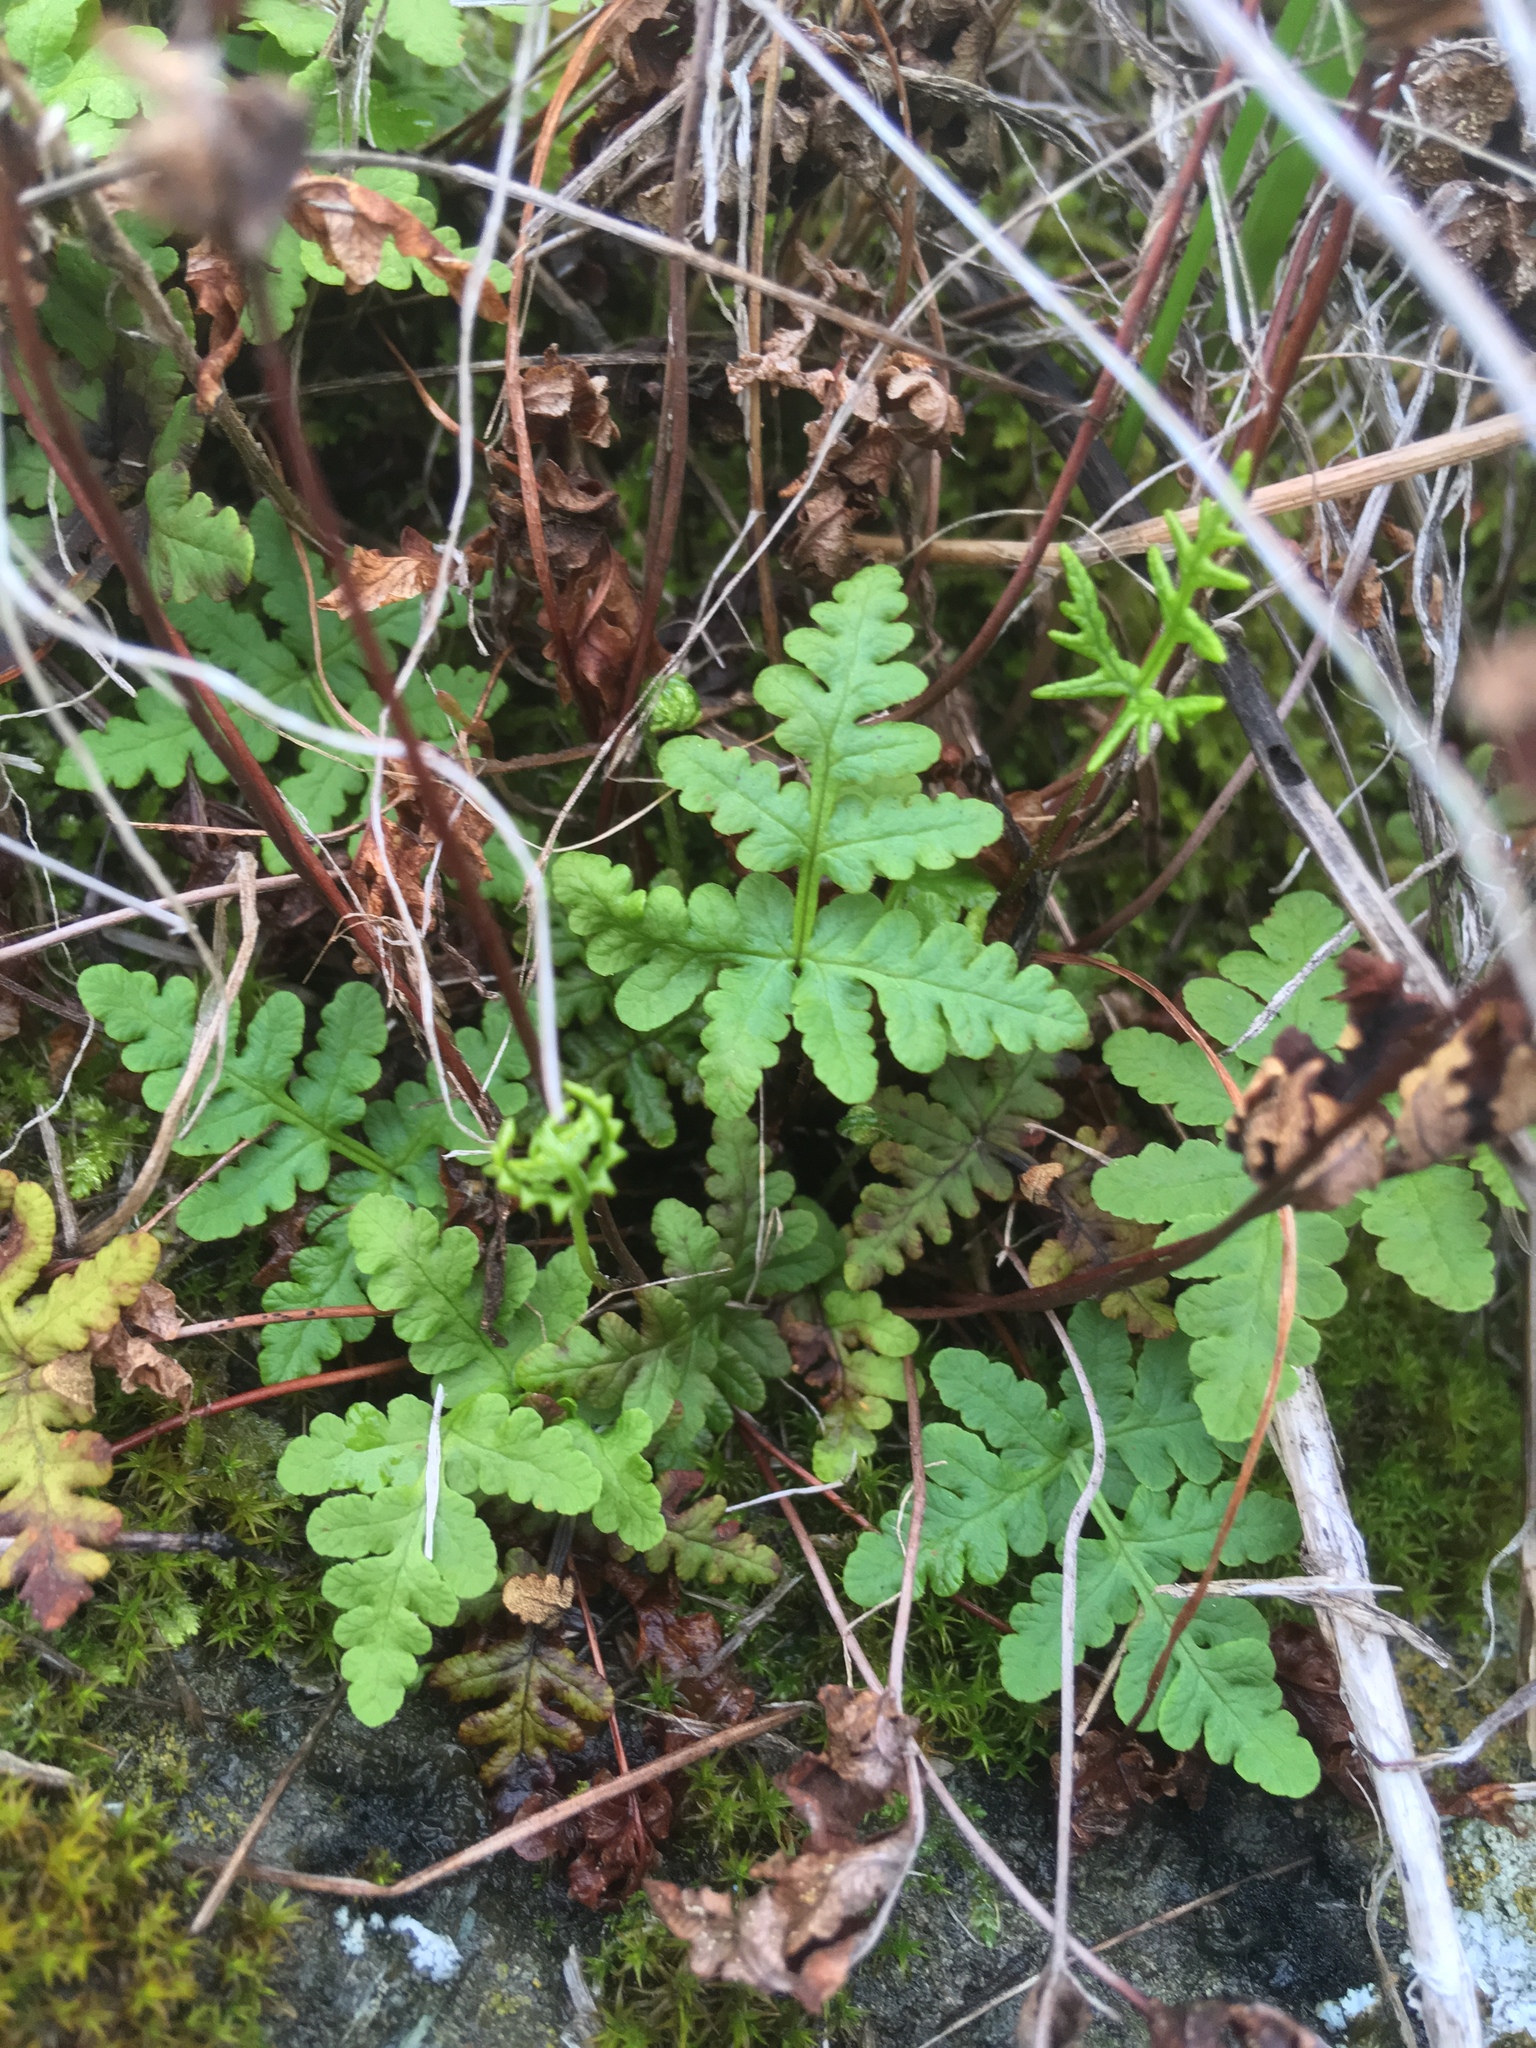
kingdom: Plantae
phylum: Tracheophyta
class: Polypodiopsida
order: Polypodiales
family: Pteridaceae
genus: Pentagramma
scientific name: Pentagramma triangularis
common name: Gold fern
